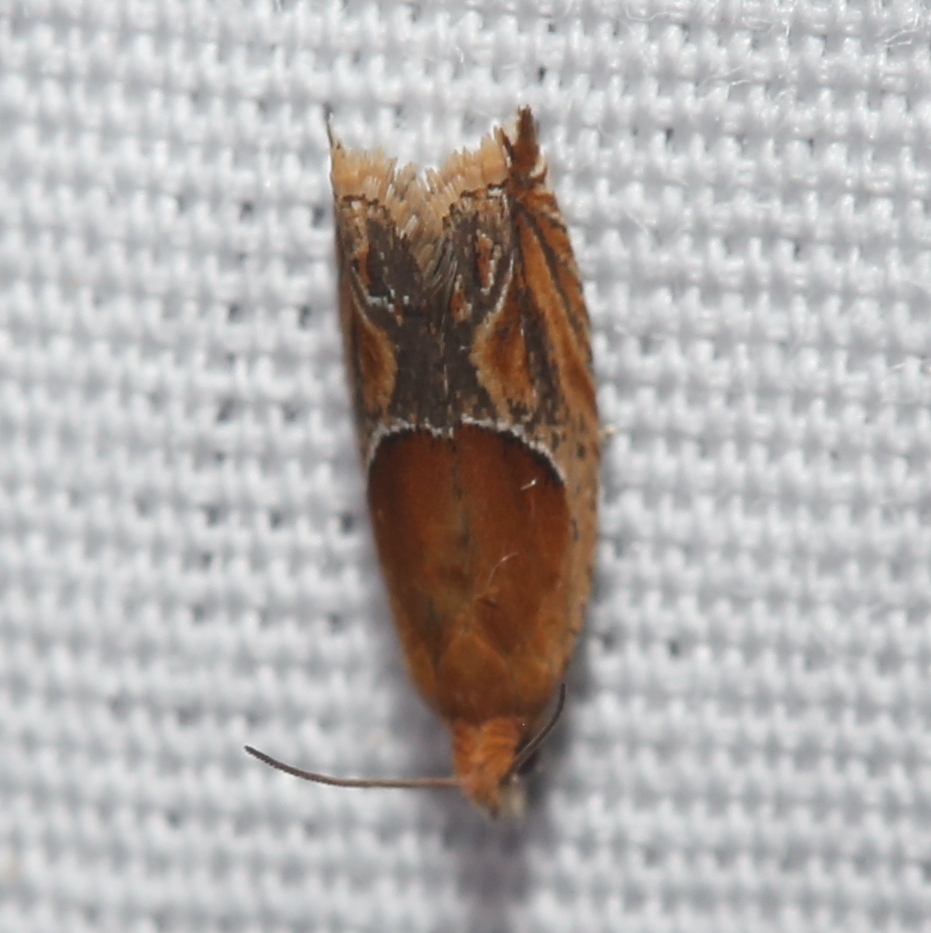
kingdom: Animalia
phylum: Arthropoda
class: Insecta
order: Lepidoptera
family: Tortricidae
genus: Ancylis
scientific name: Ancylis comptana
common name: Little roller
